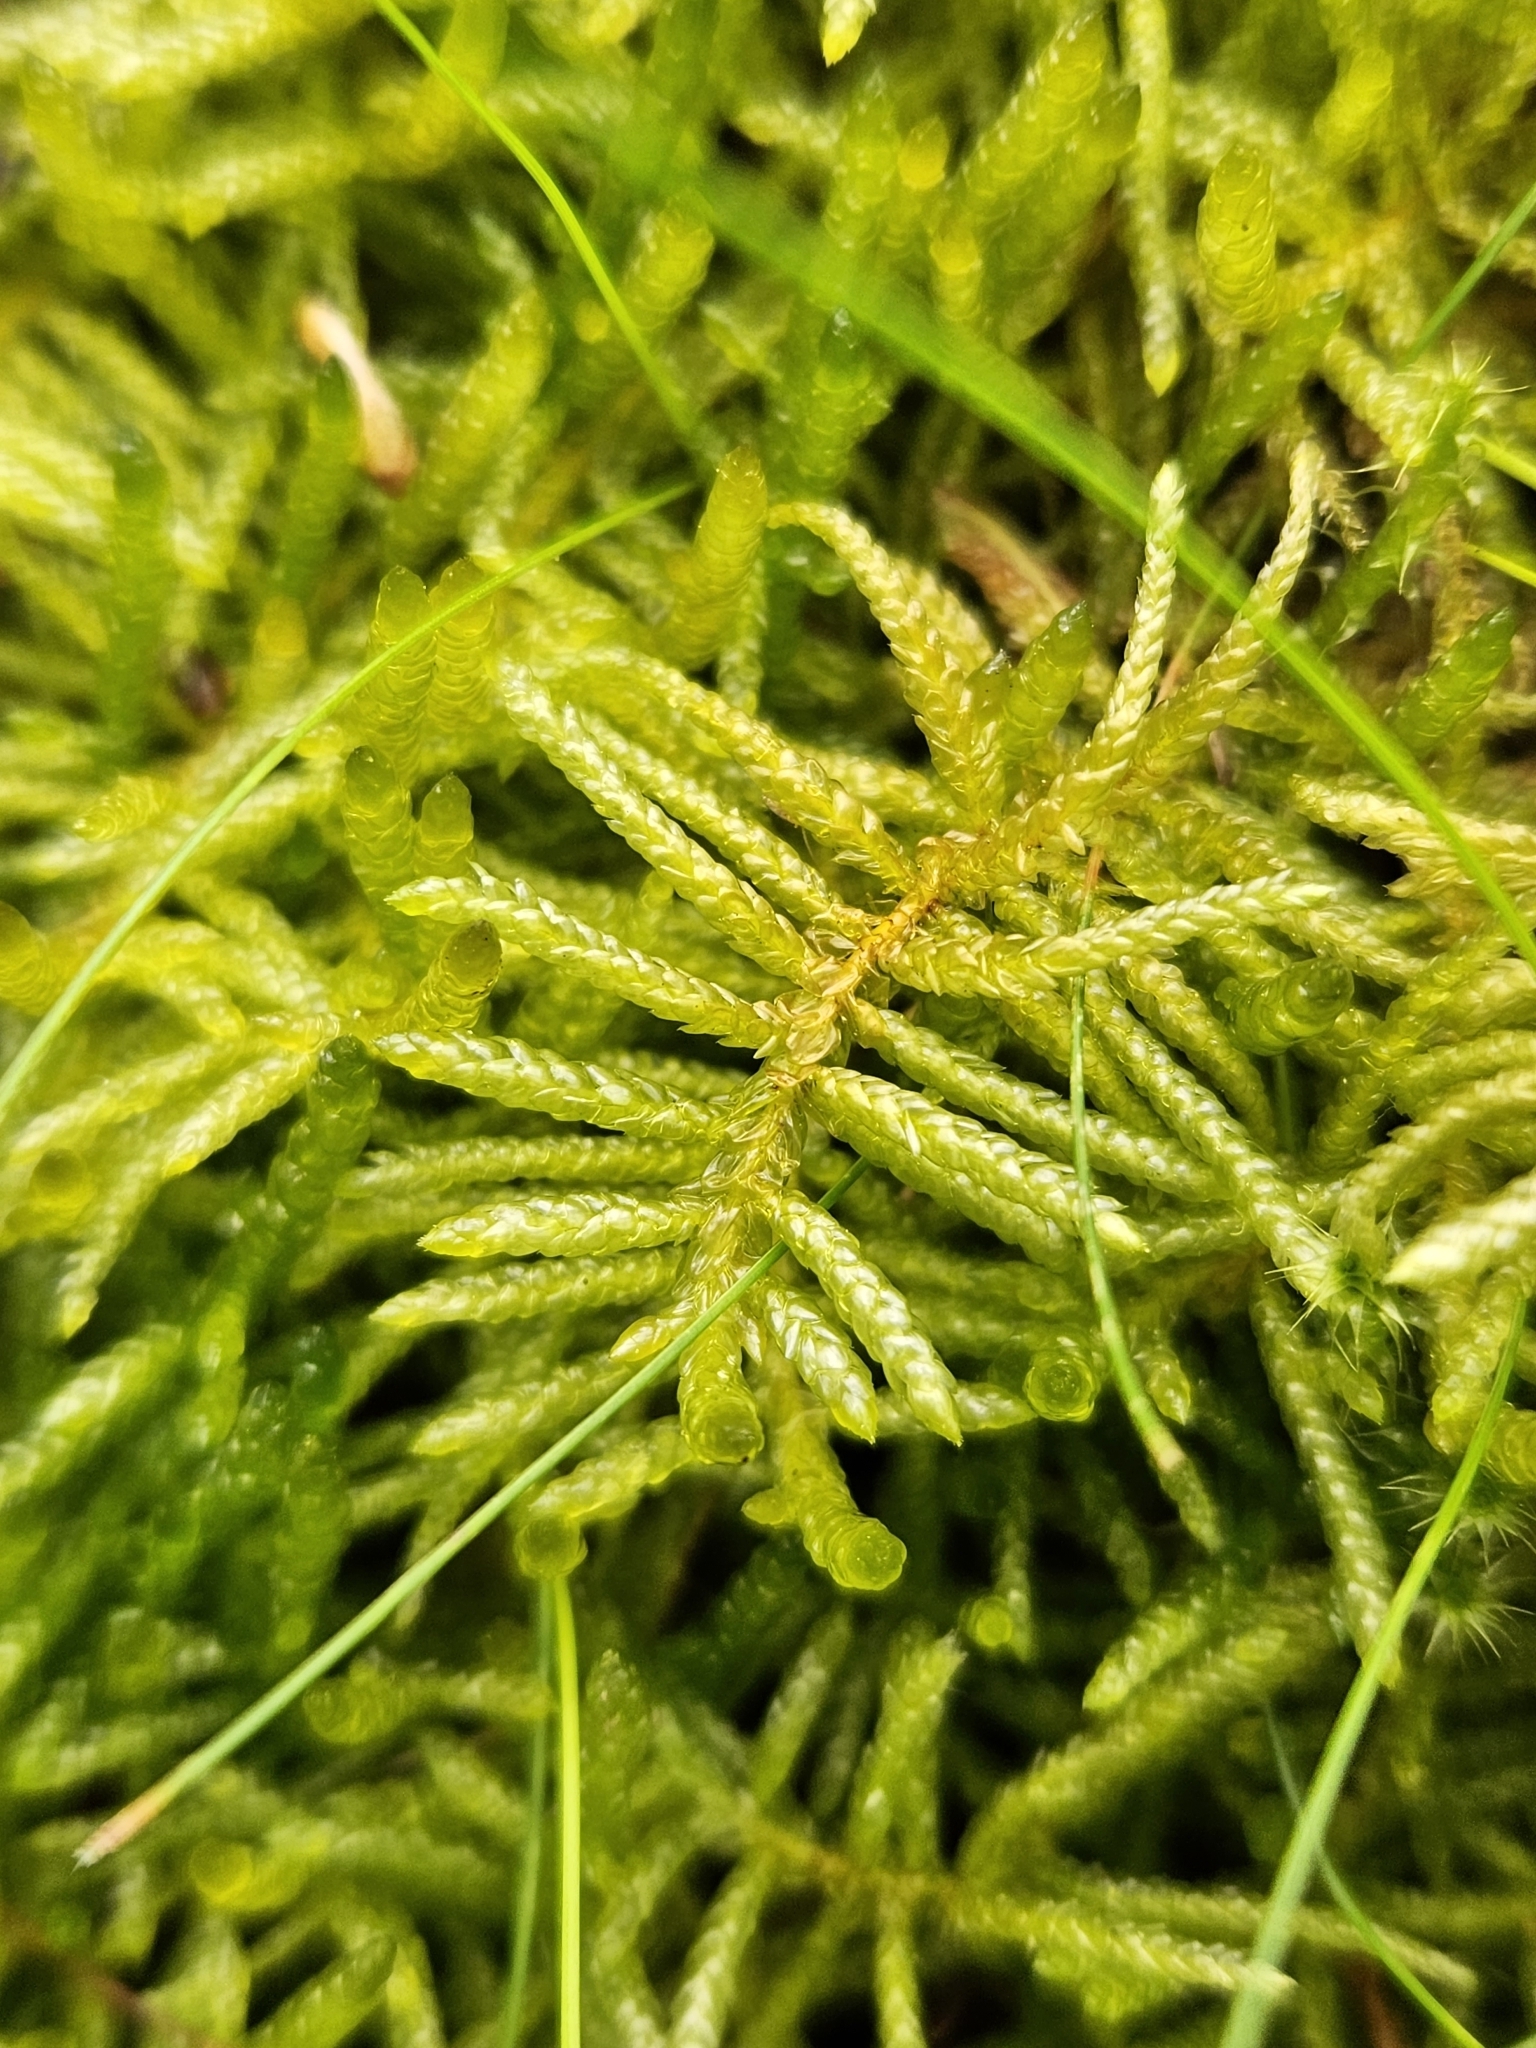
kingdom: Plantae
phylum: Bryophyta
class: Bryopsida
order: Hypnales
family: Brachytheciaceae
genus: Pseudoscleropodium
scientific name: Pseudoscleropodium purum
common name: Neat feather-moss
